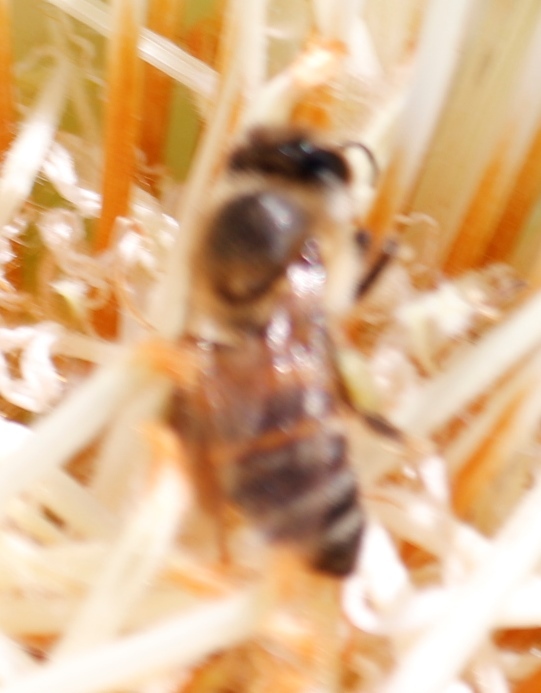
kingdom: Animalia
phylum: Arthropoda
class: Insecta
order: Hymenoptera
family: Apidae
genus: Apis
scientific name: Apis mellifera
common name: Honey bee
